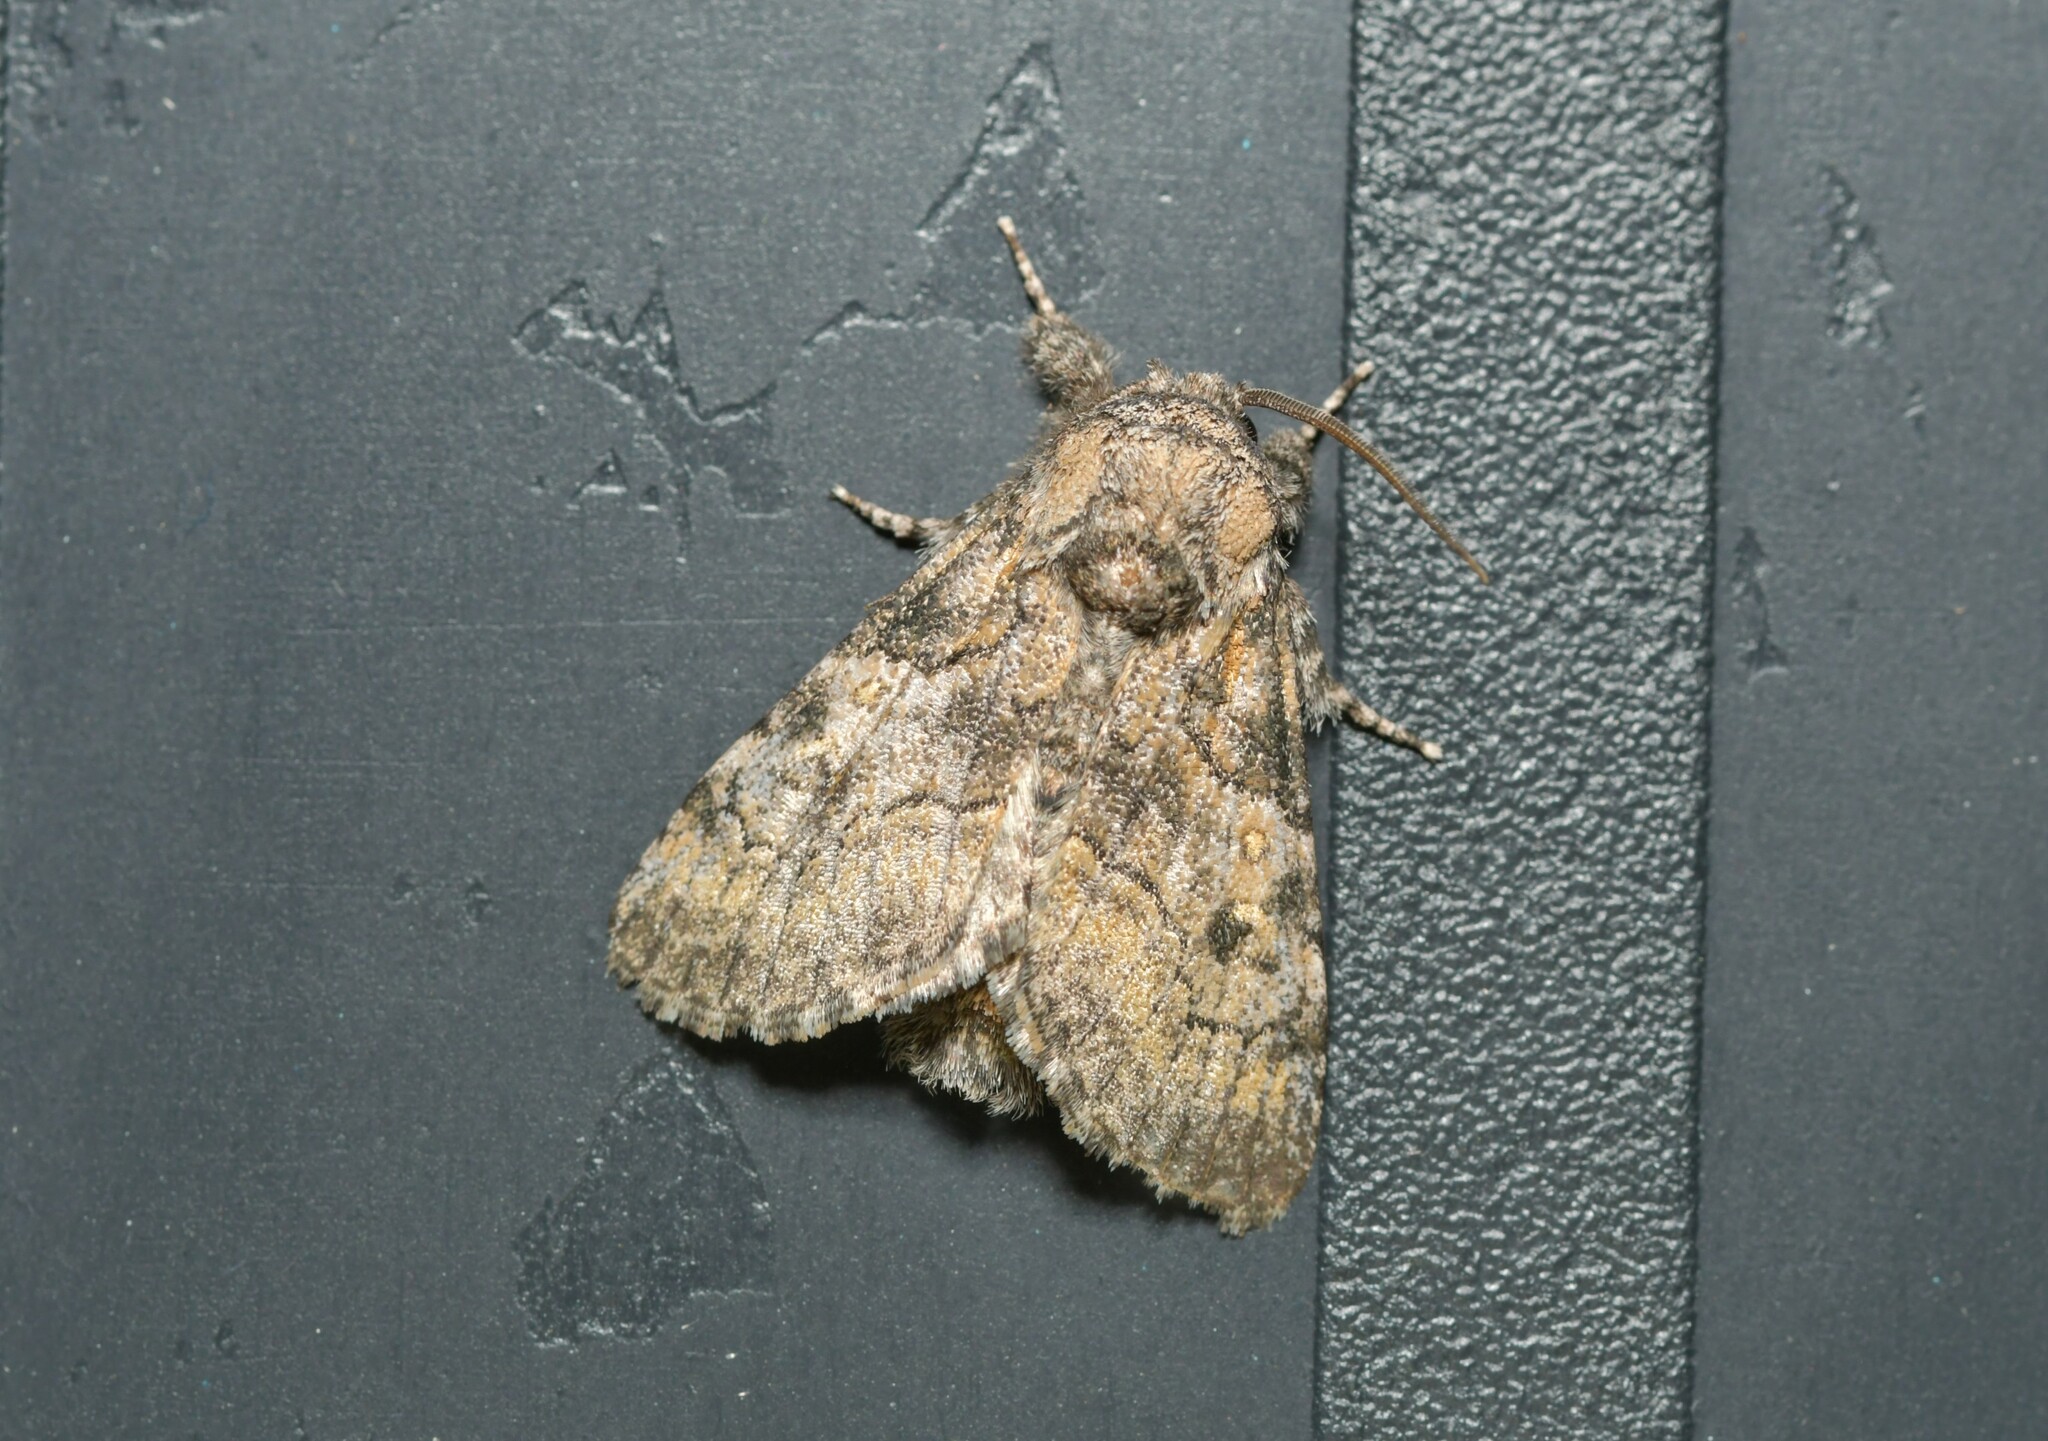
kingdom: Animalia
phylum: Arthropoda
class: Insecta
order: Lepidoptera
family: Noctuidae
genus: Raphia
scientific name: Raphia hybris
